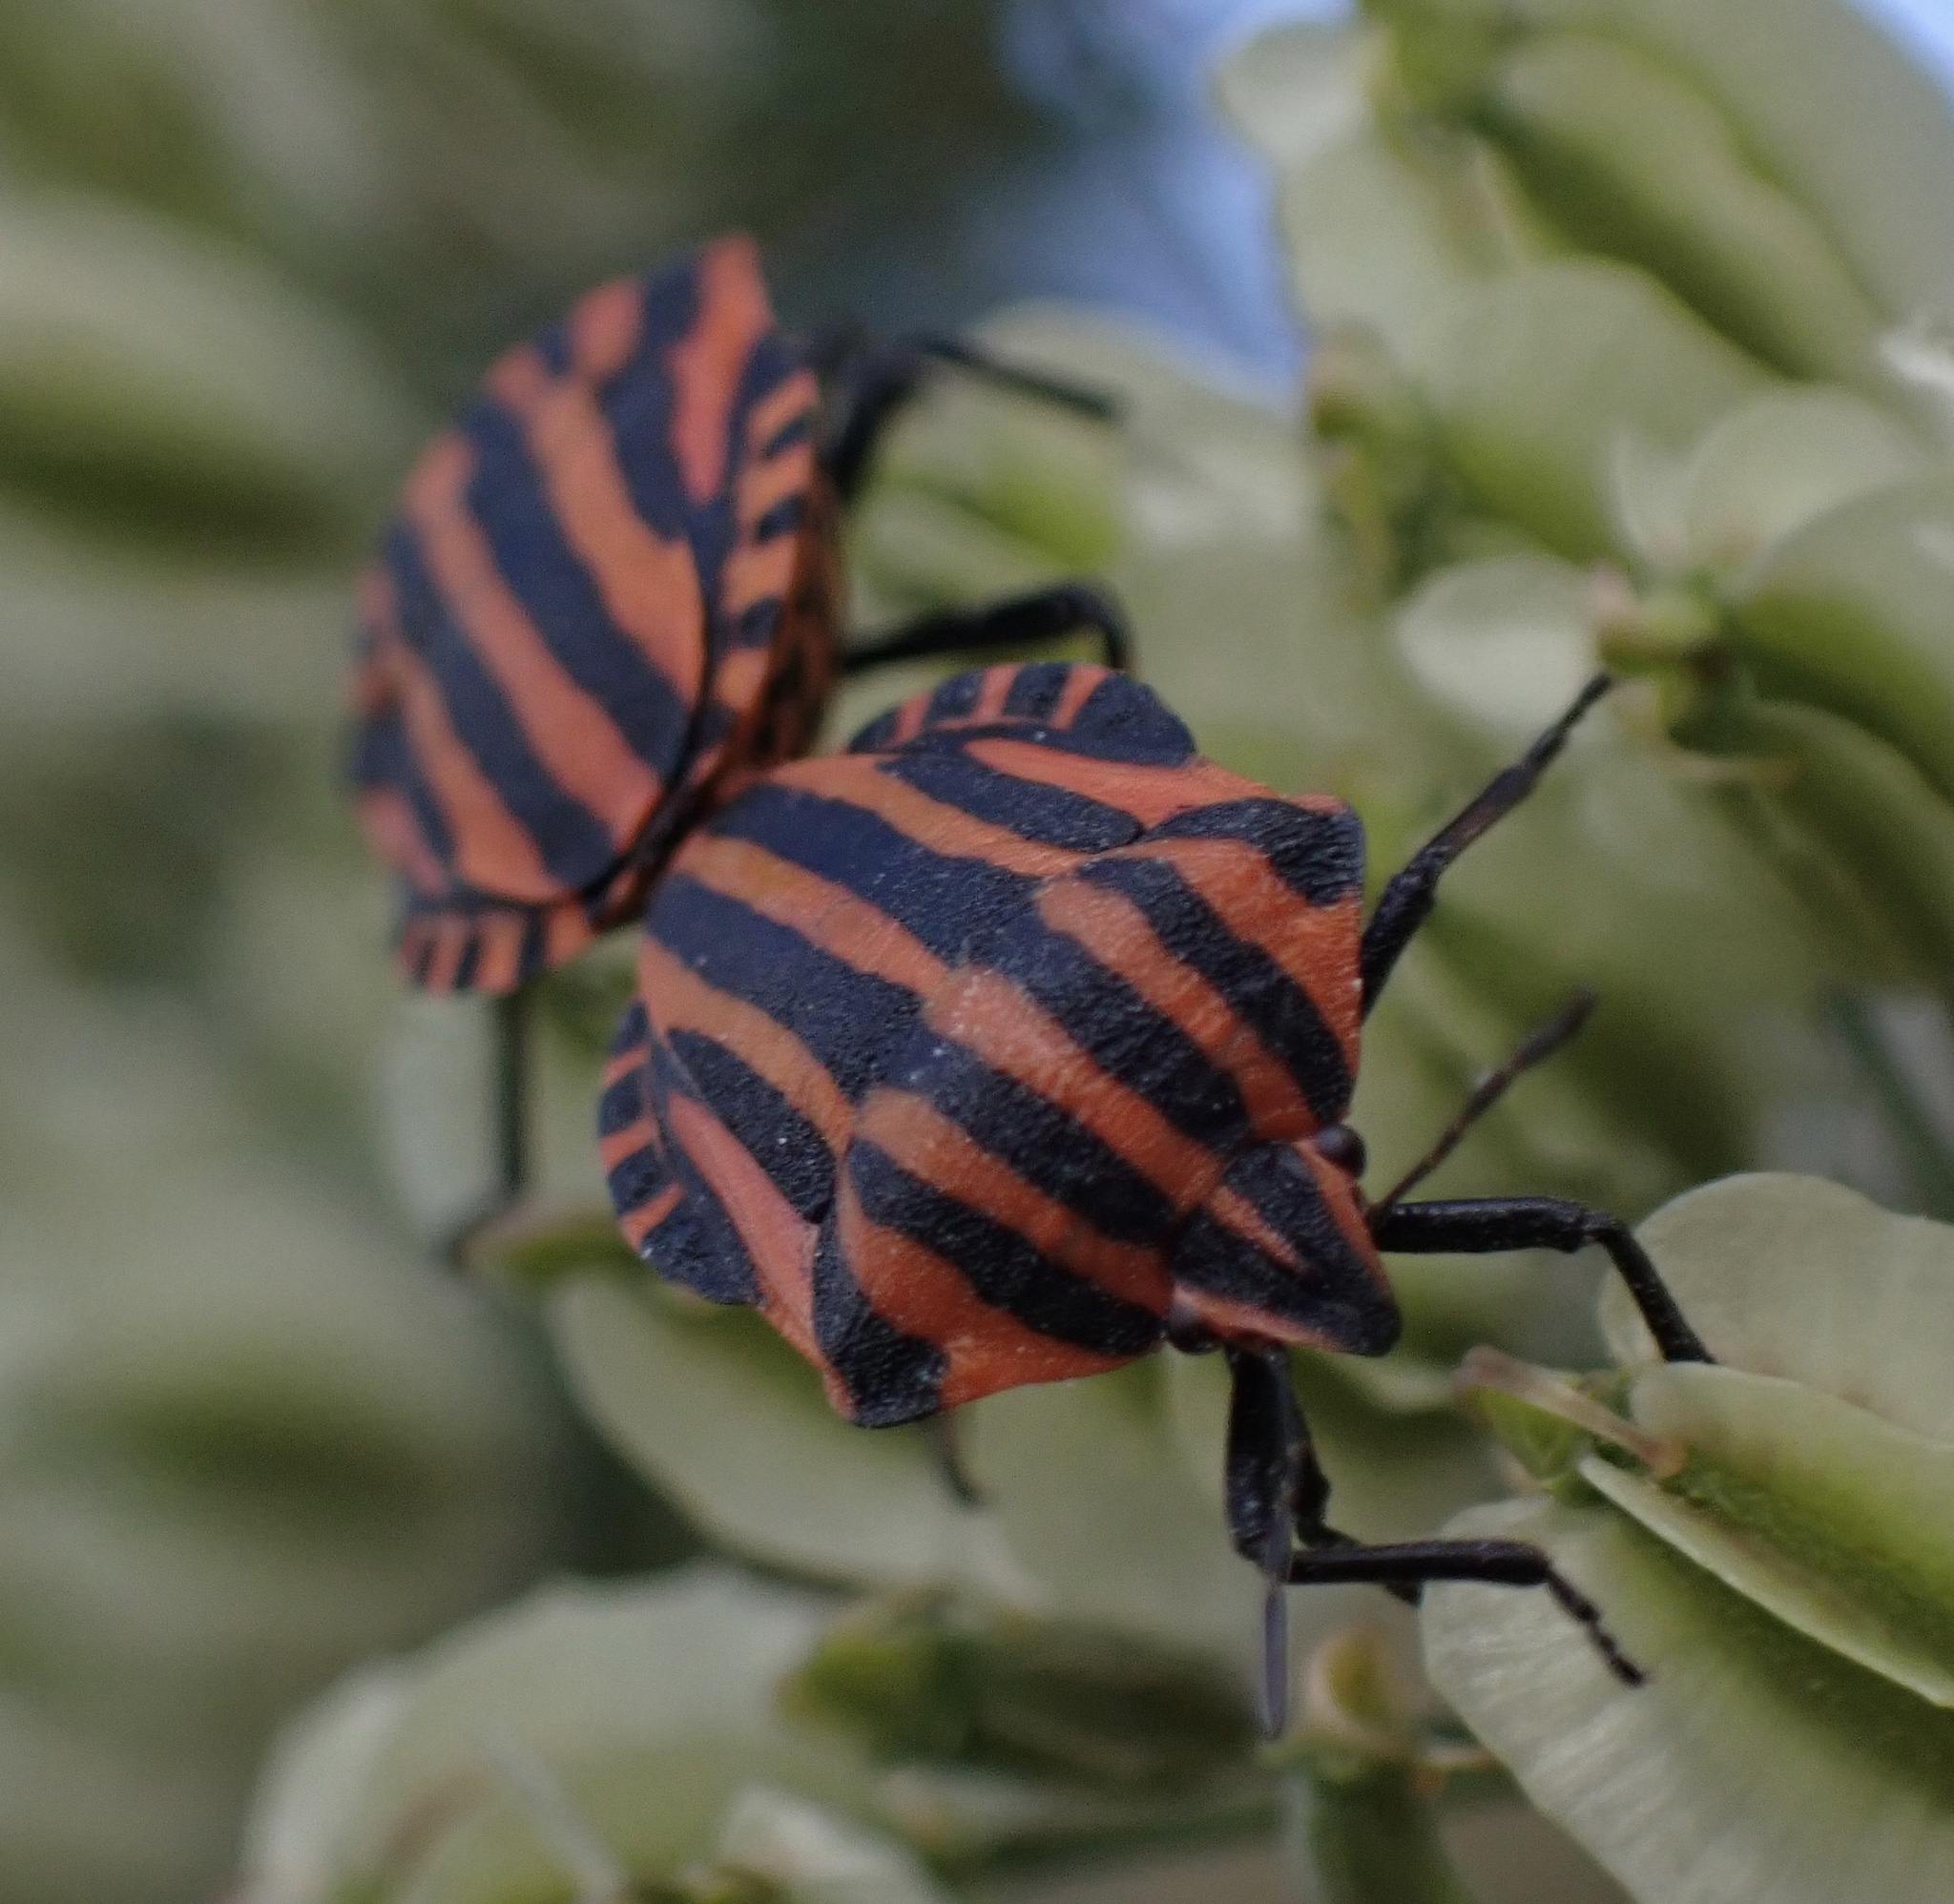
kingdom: Animalia
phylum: Arthropoda
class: Insecta
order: Hemiptera
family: Pentatomidae
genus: Graphosoma
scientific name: Graphosoma italicum
